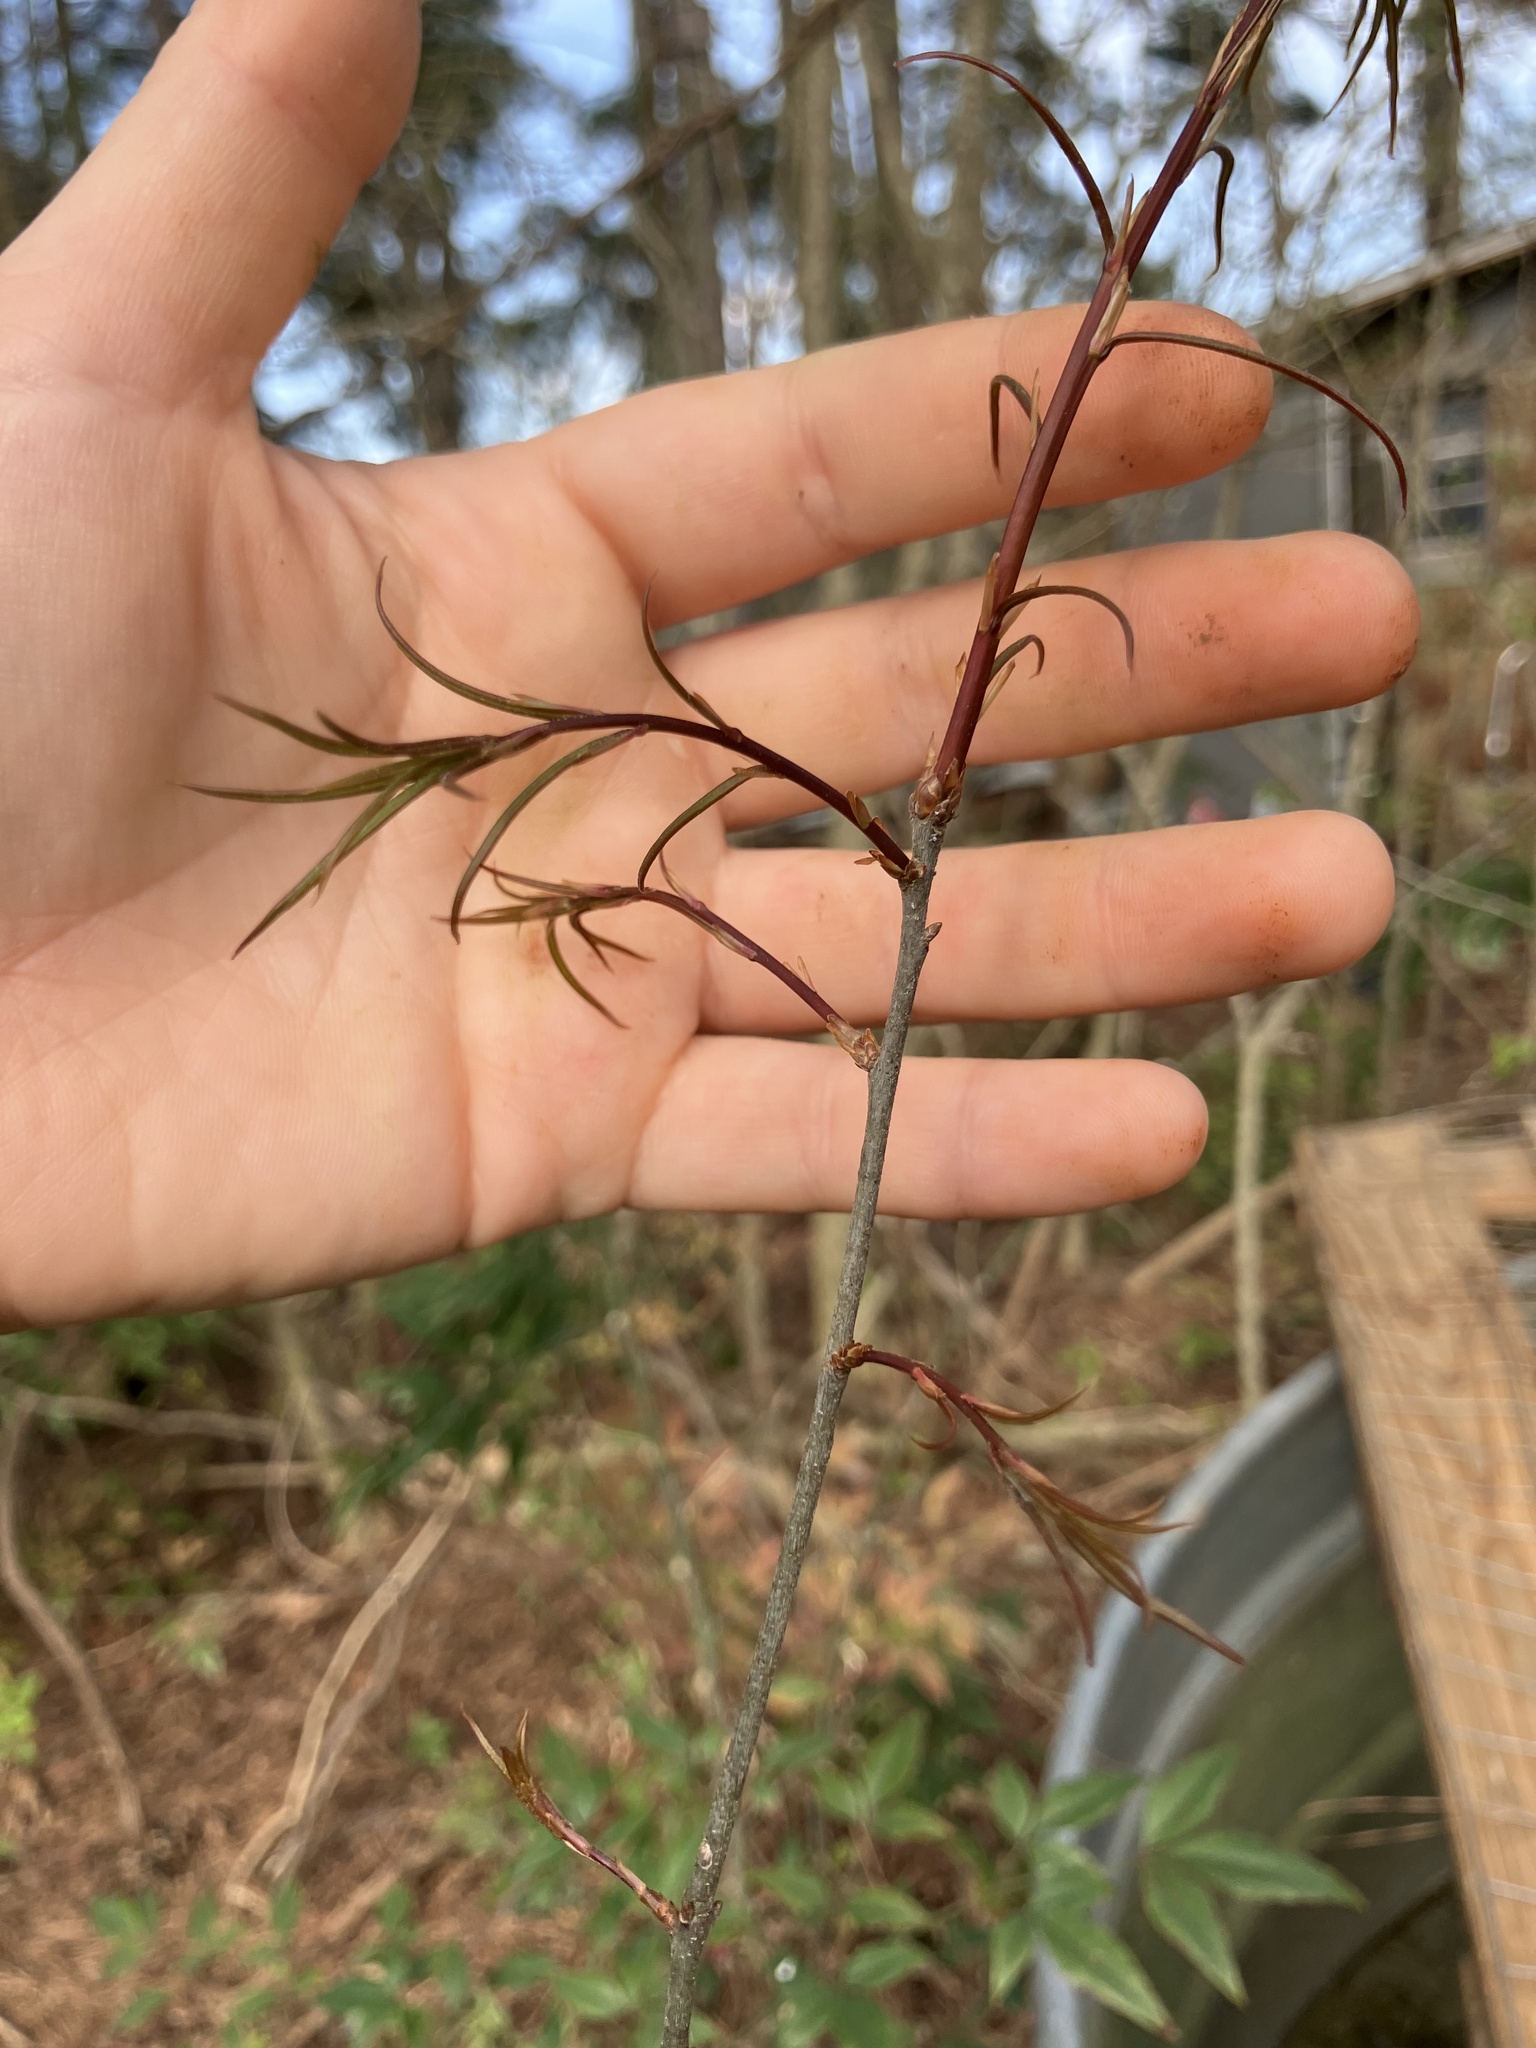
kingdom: Plantae
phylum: Tracheophyta
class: Magnoliopsida
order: Fagales
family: Fagaceae
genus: Quercus
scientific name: Quercus phellos
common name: Willow oak
